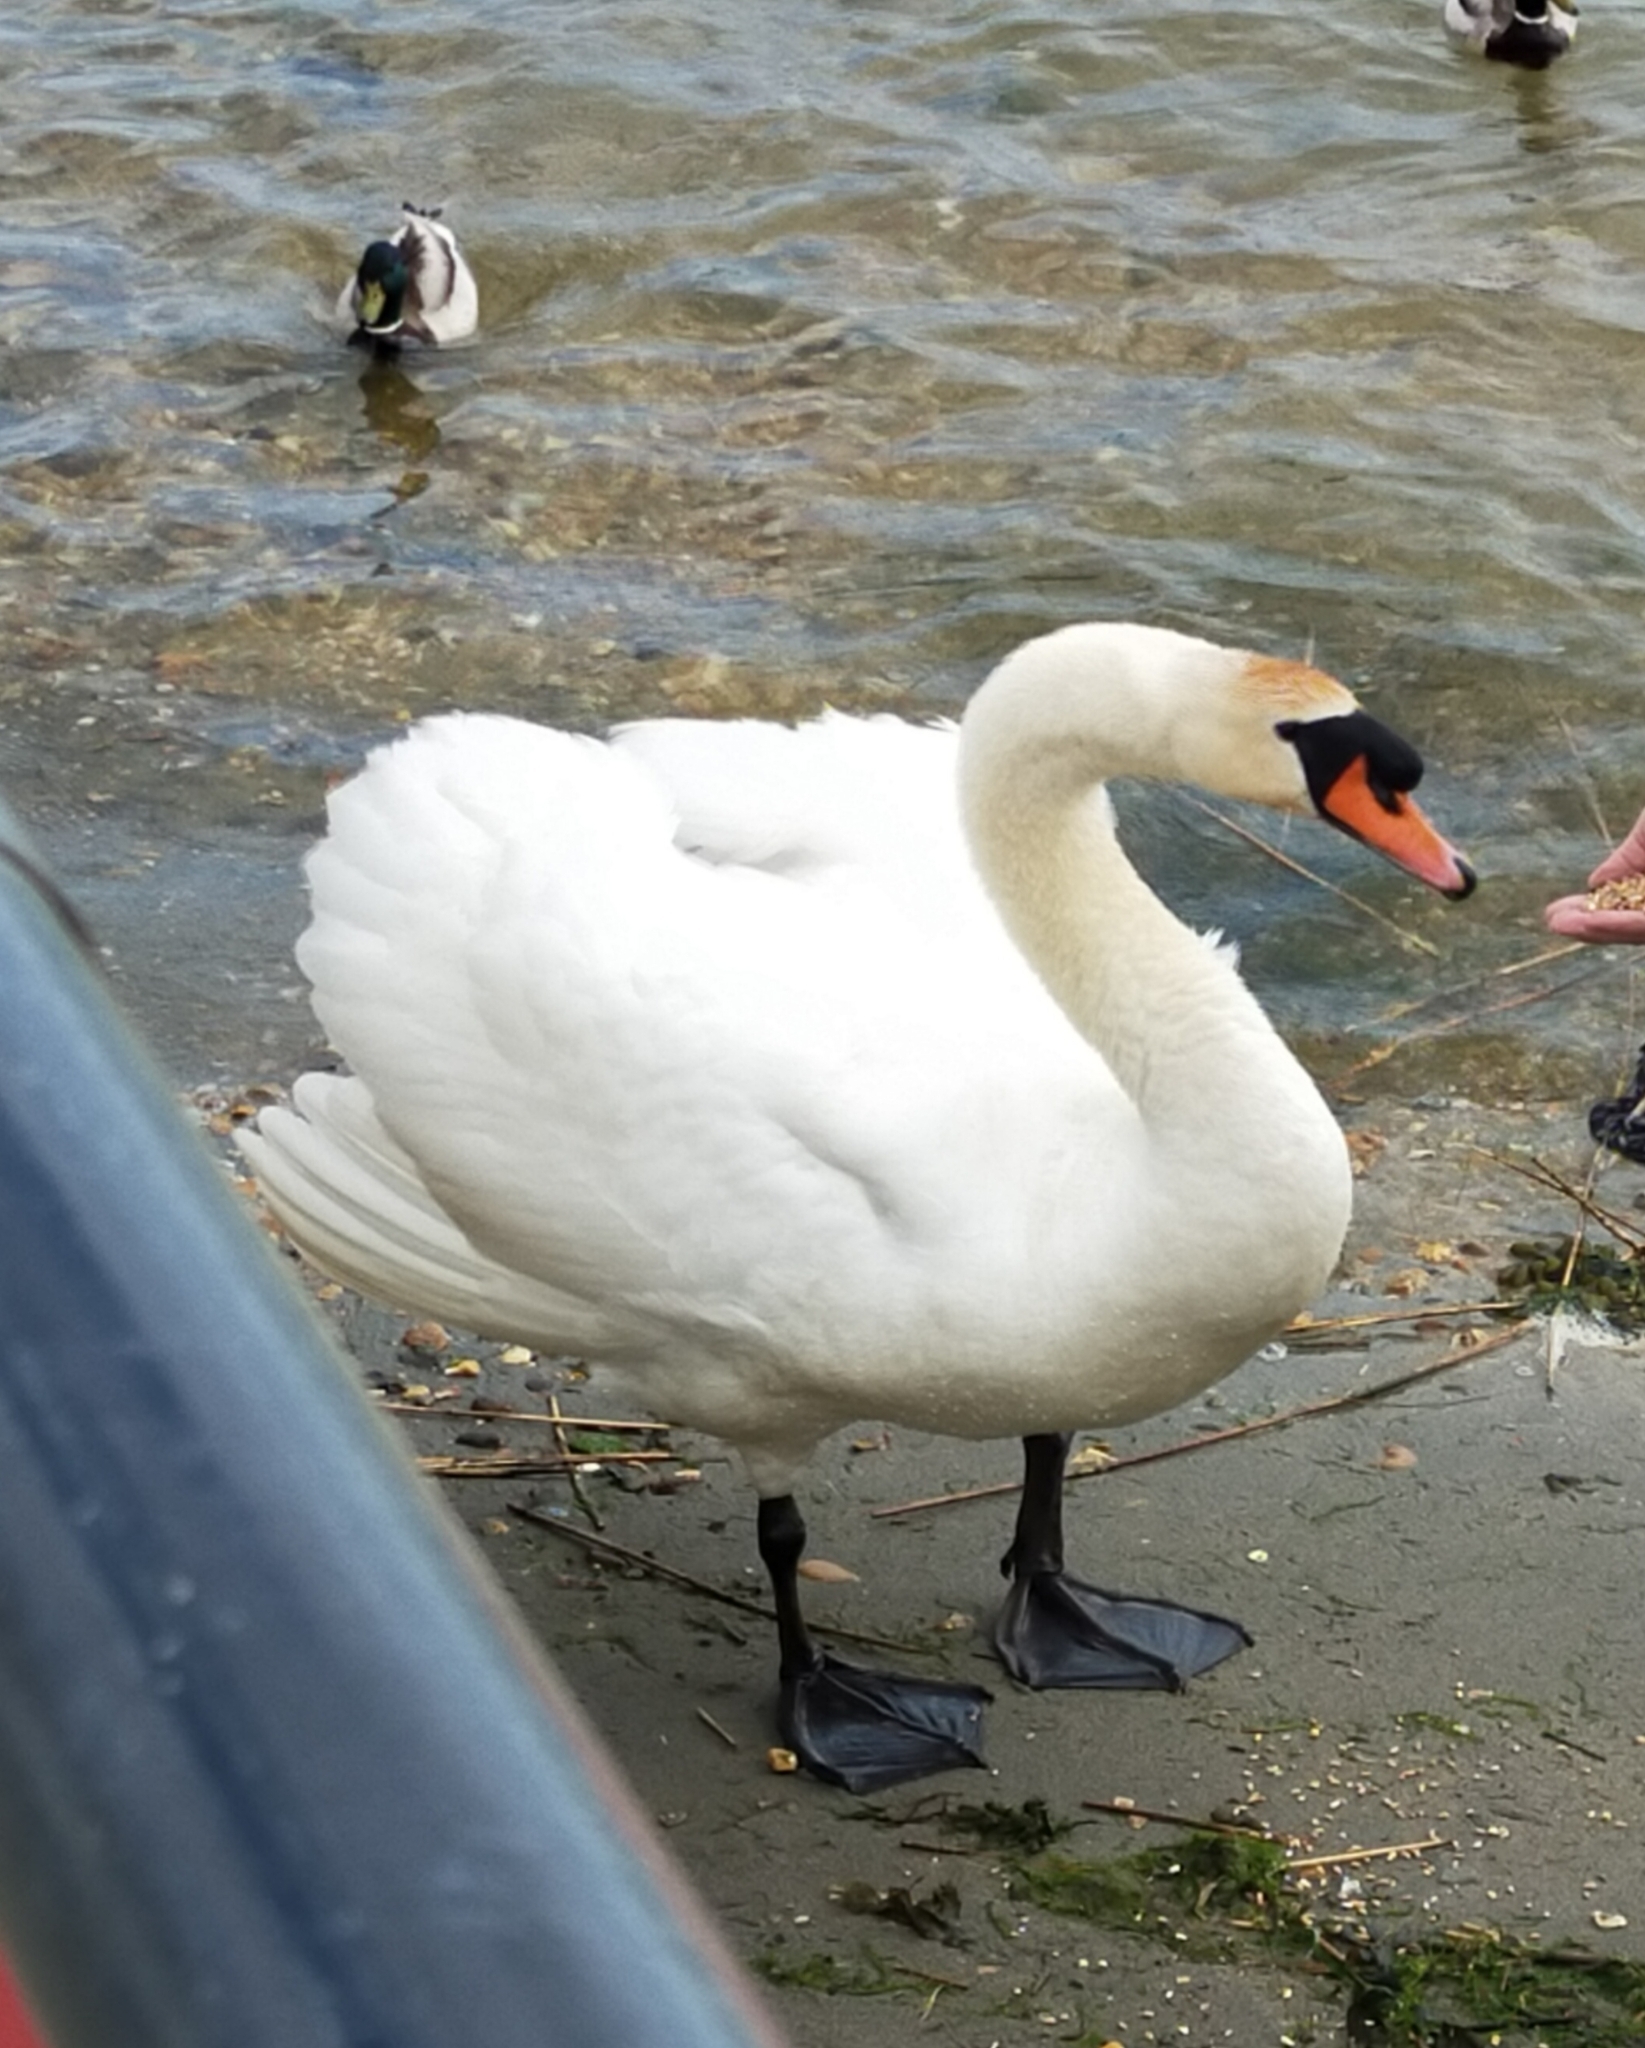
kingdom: Animalia
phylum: Chordata
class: Aves
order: Anseriformes
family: Anatidae
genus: Cygnus
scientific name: Cygnus olor
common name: Mute swan
